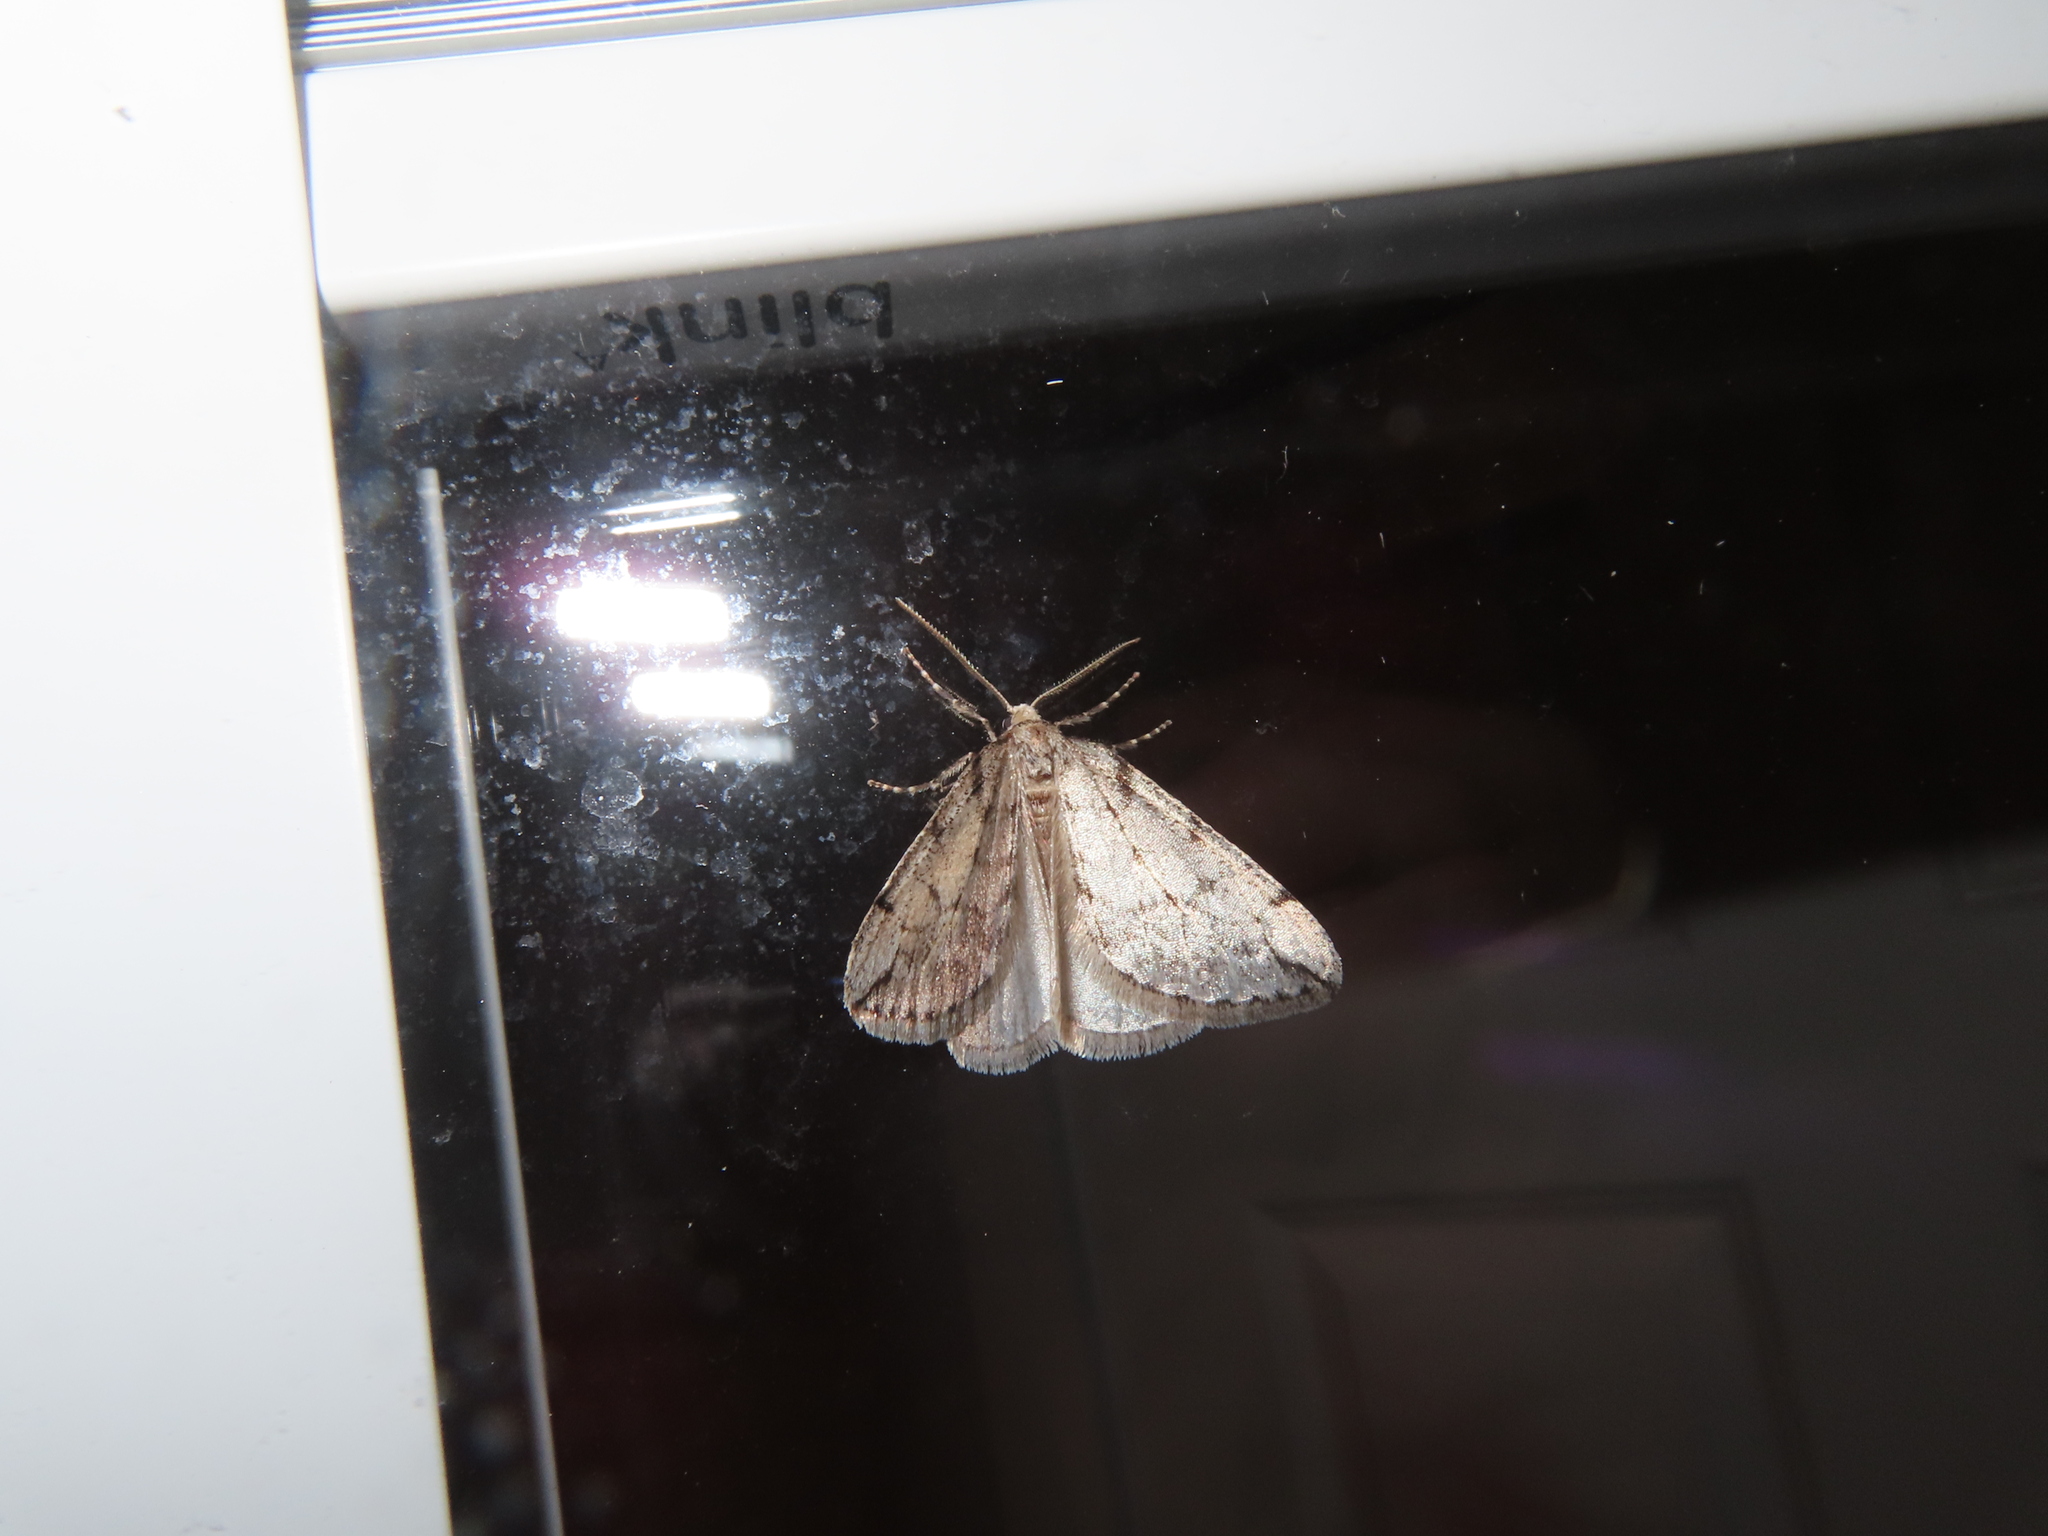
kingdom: Animalia
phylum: Arthropoda
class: Insecta
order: Lepidoptera
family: Geometridae
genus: Paleacrita
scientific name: Paleacrita vernata
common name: Spring cankerworm
